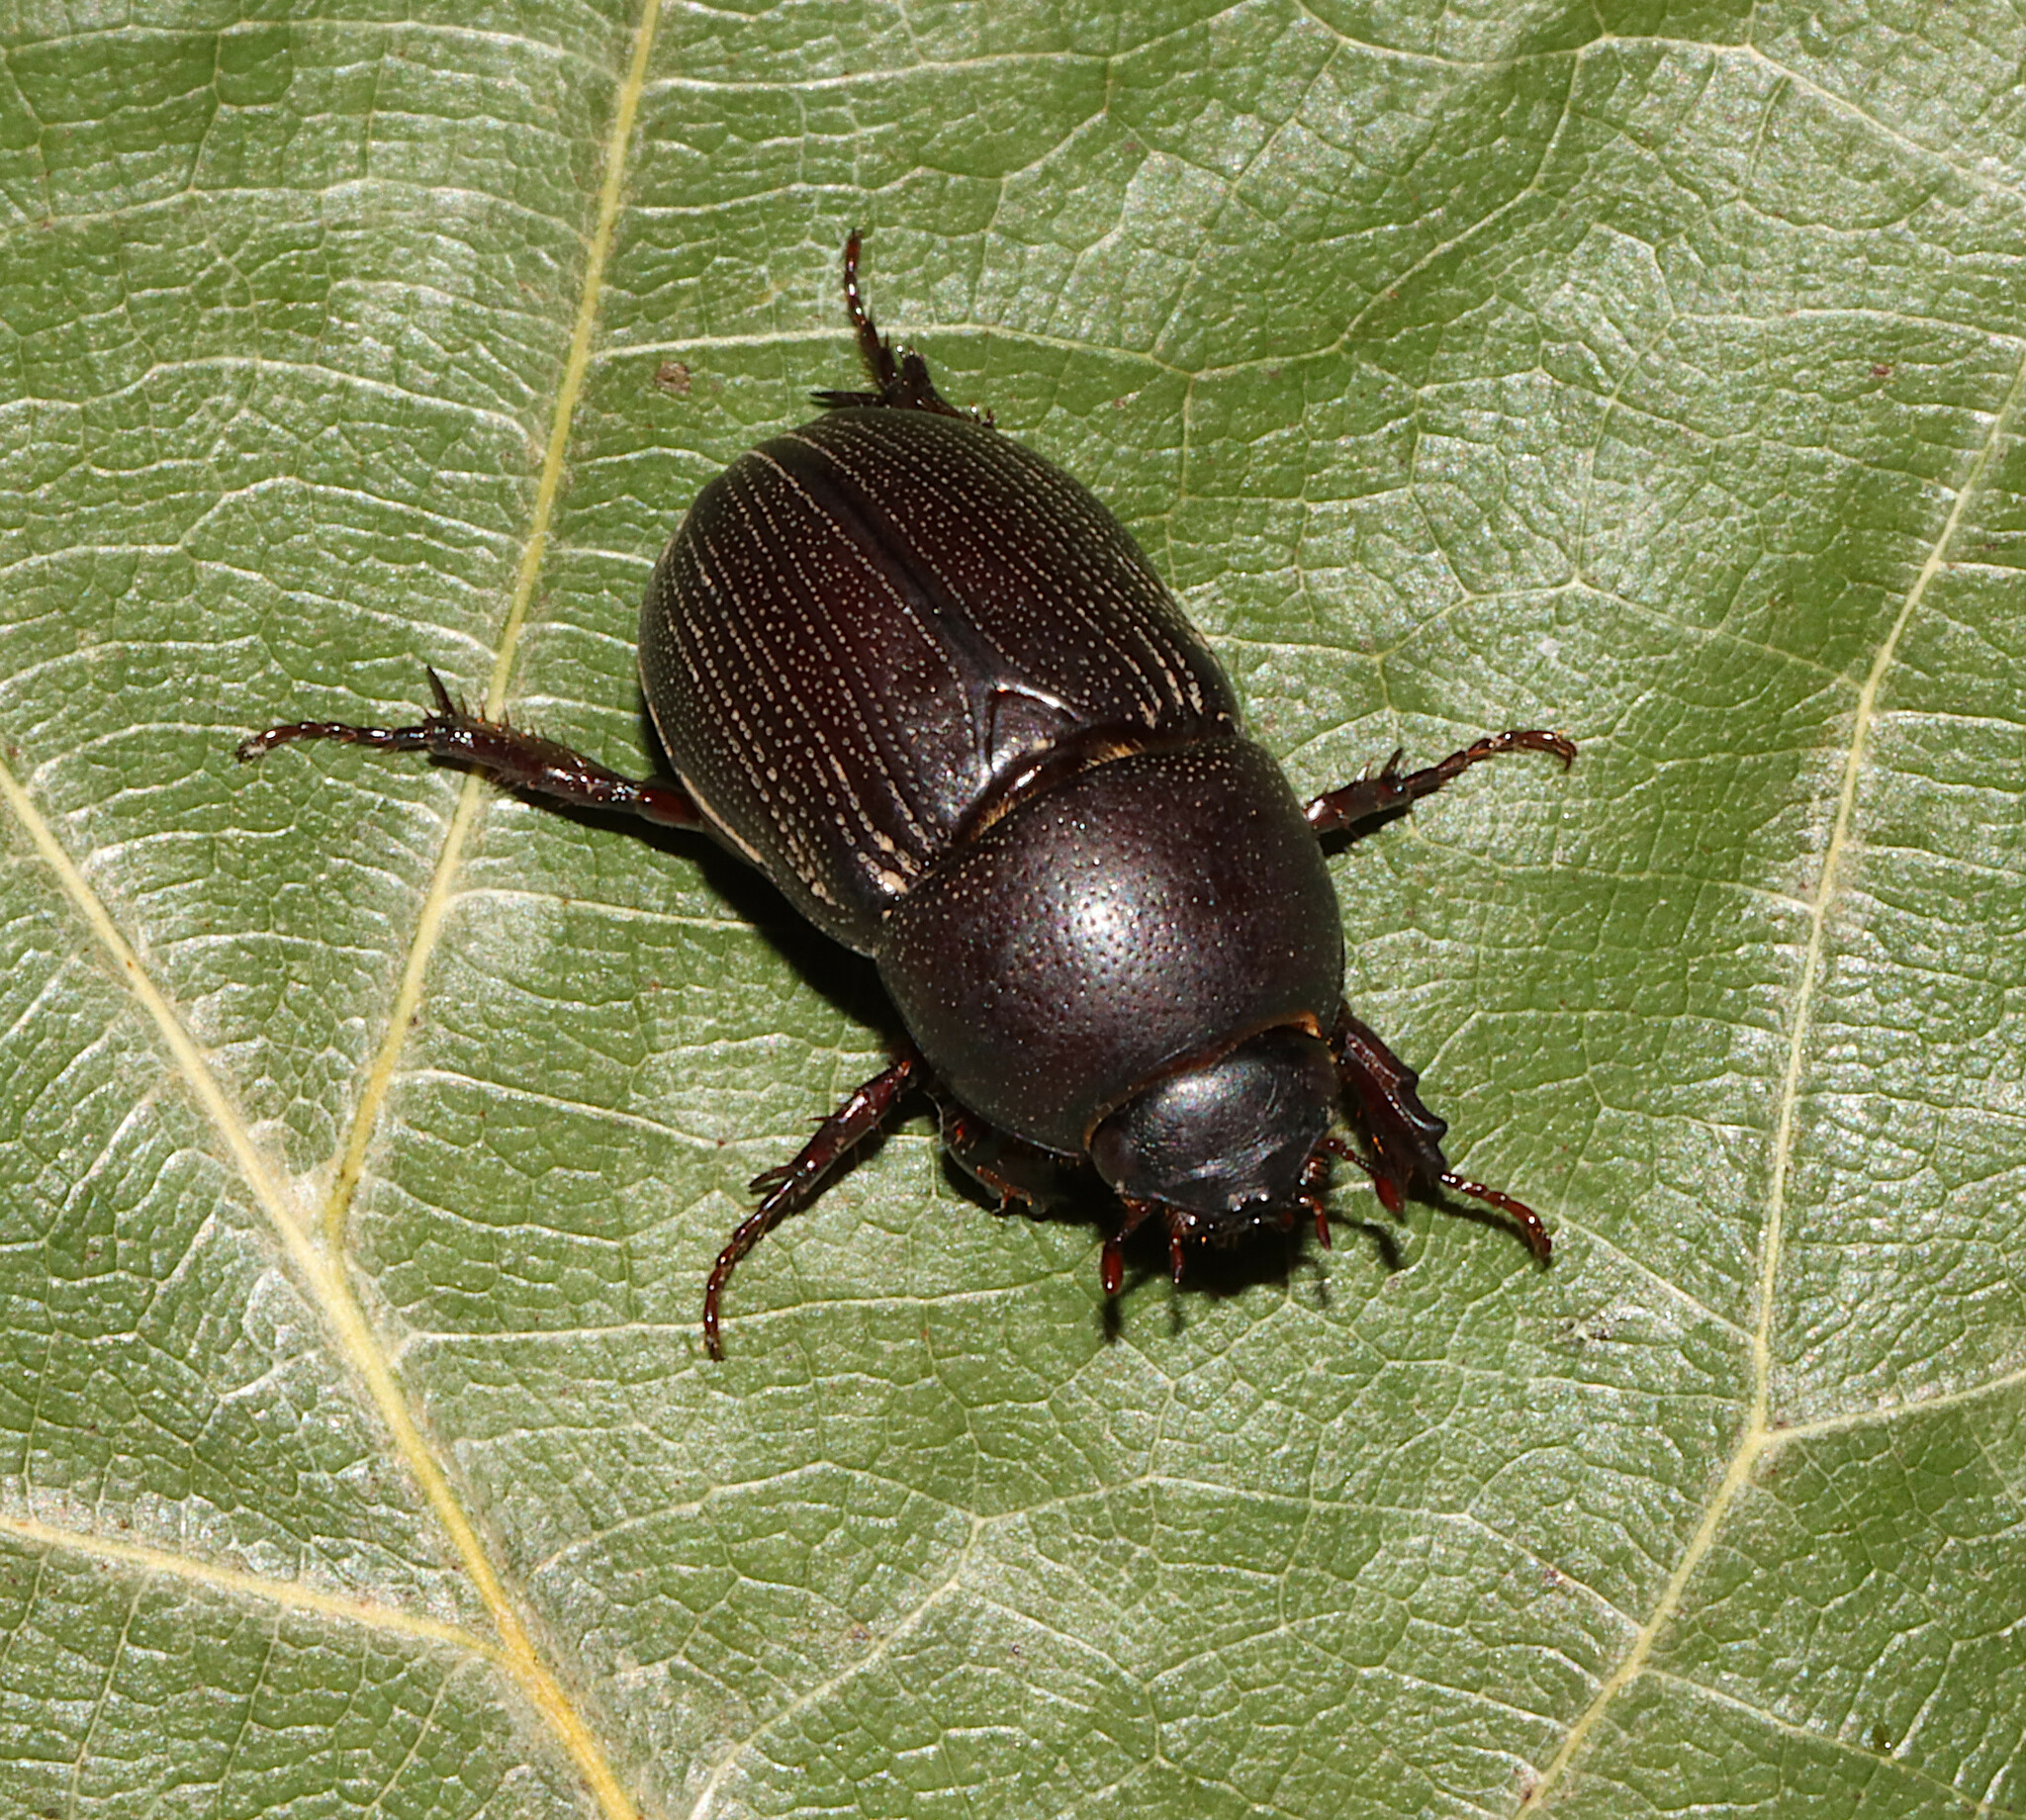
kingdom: Animalia
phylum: Arthropoda
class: Insecta
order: Coleoptera
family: Scarabaeidae
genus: Euetheola
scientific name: Euetheola rugiceps
